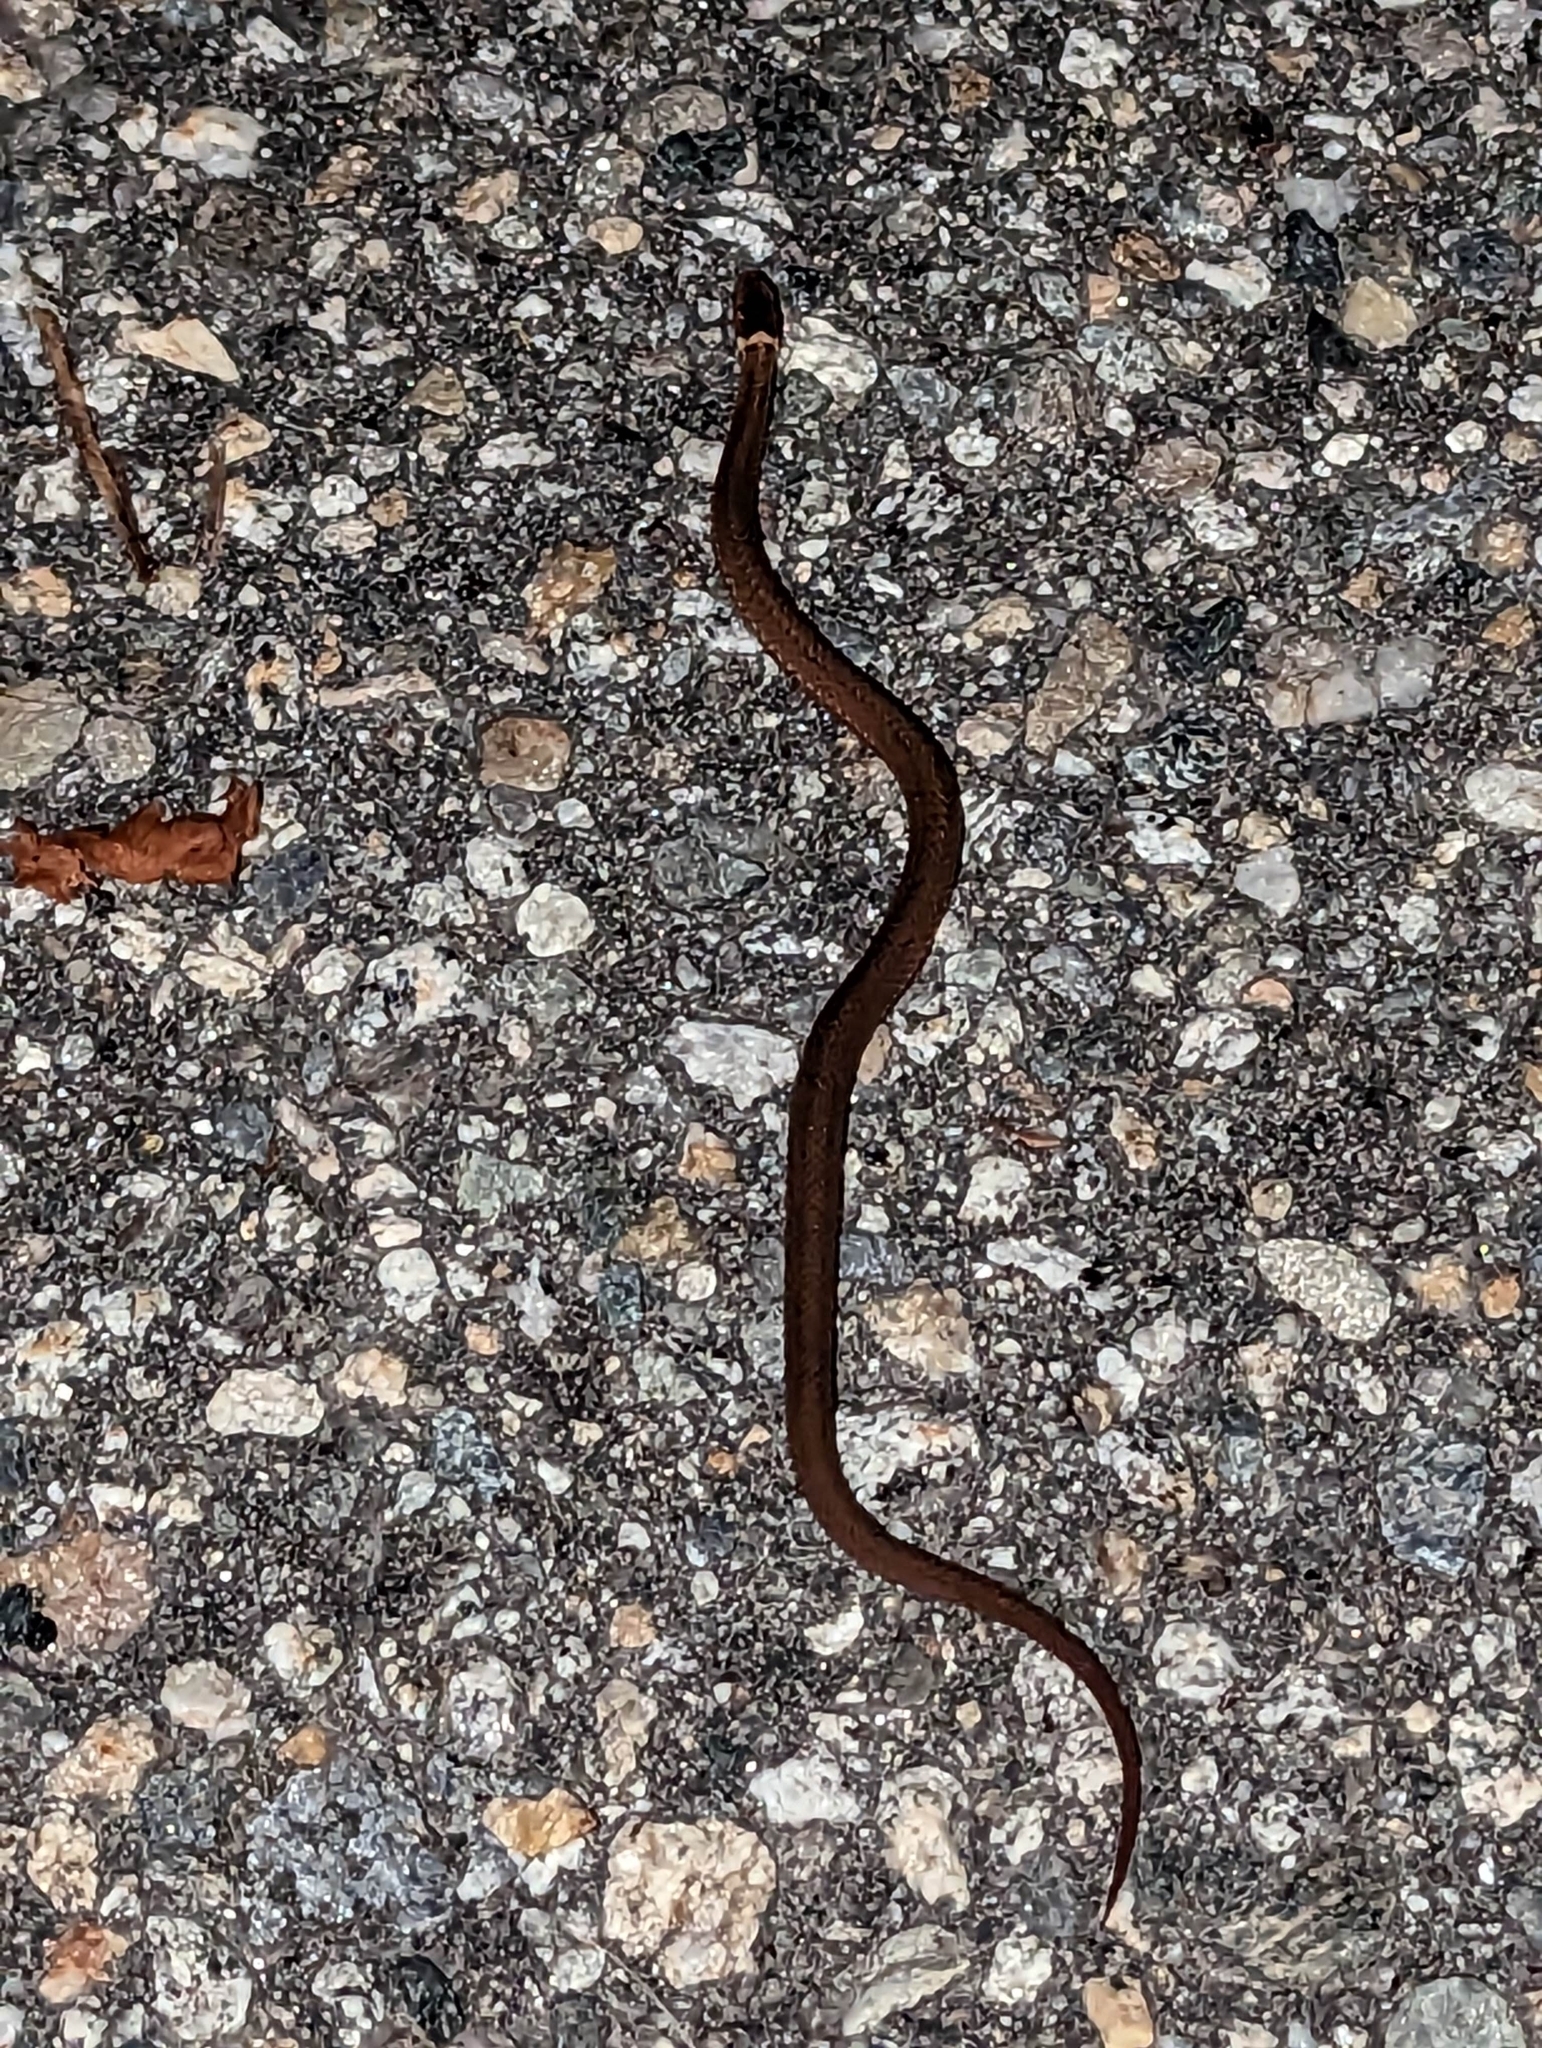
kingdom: Animalia
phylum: Chordata
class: Squamata
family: Colubridae
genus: Storeria
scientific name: Storeria occipitomaculata
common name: Redbelly snake
